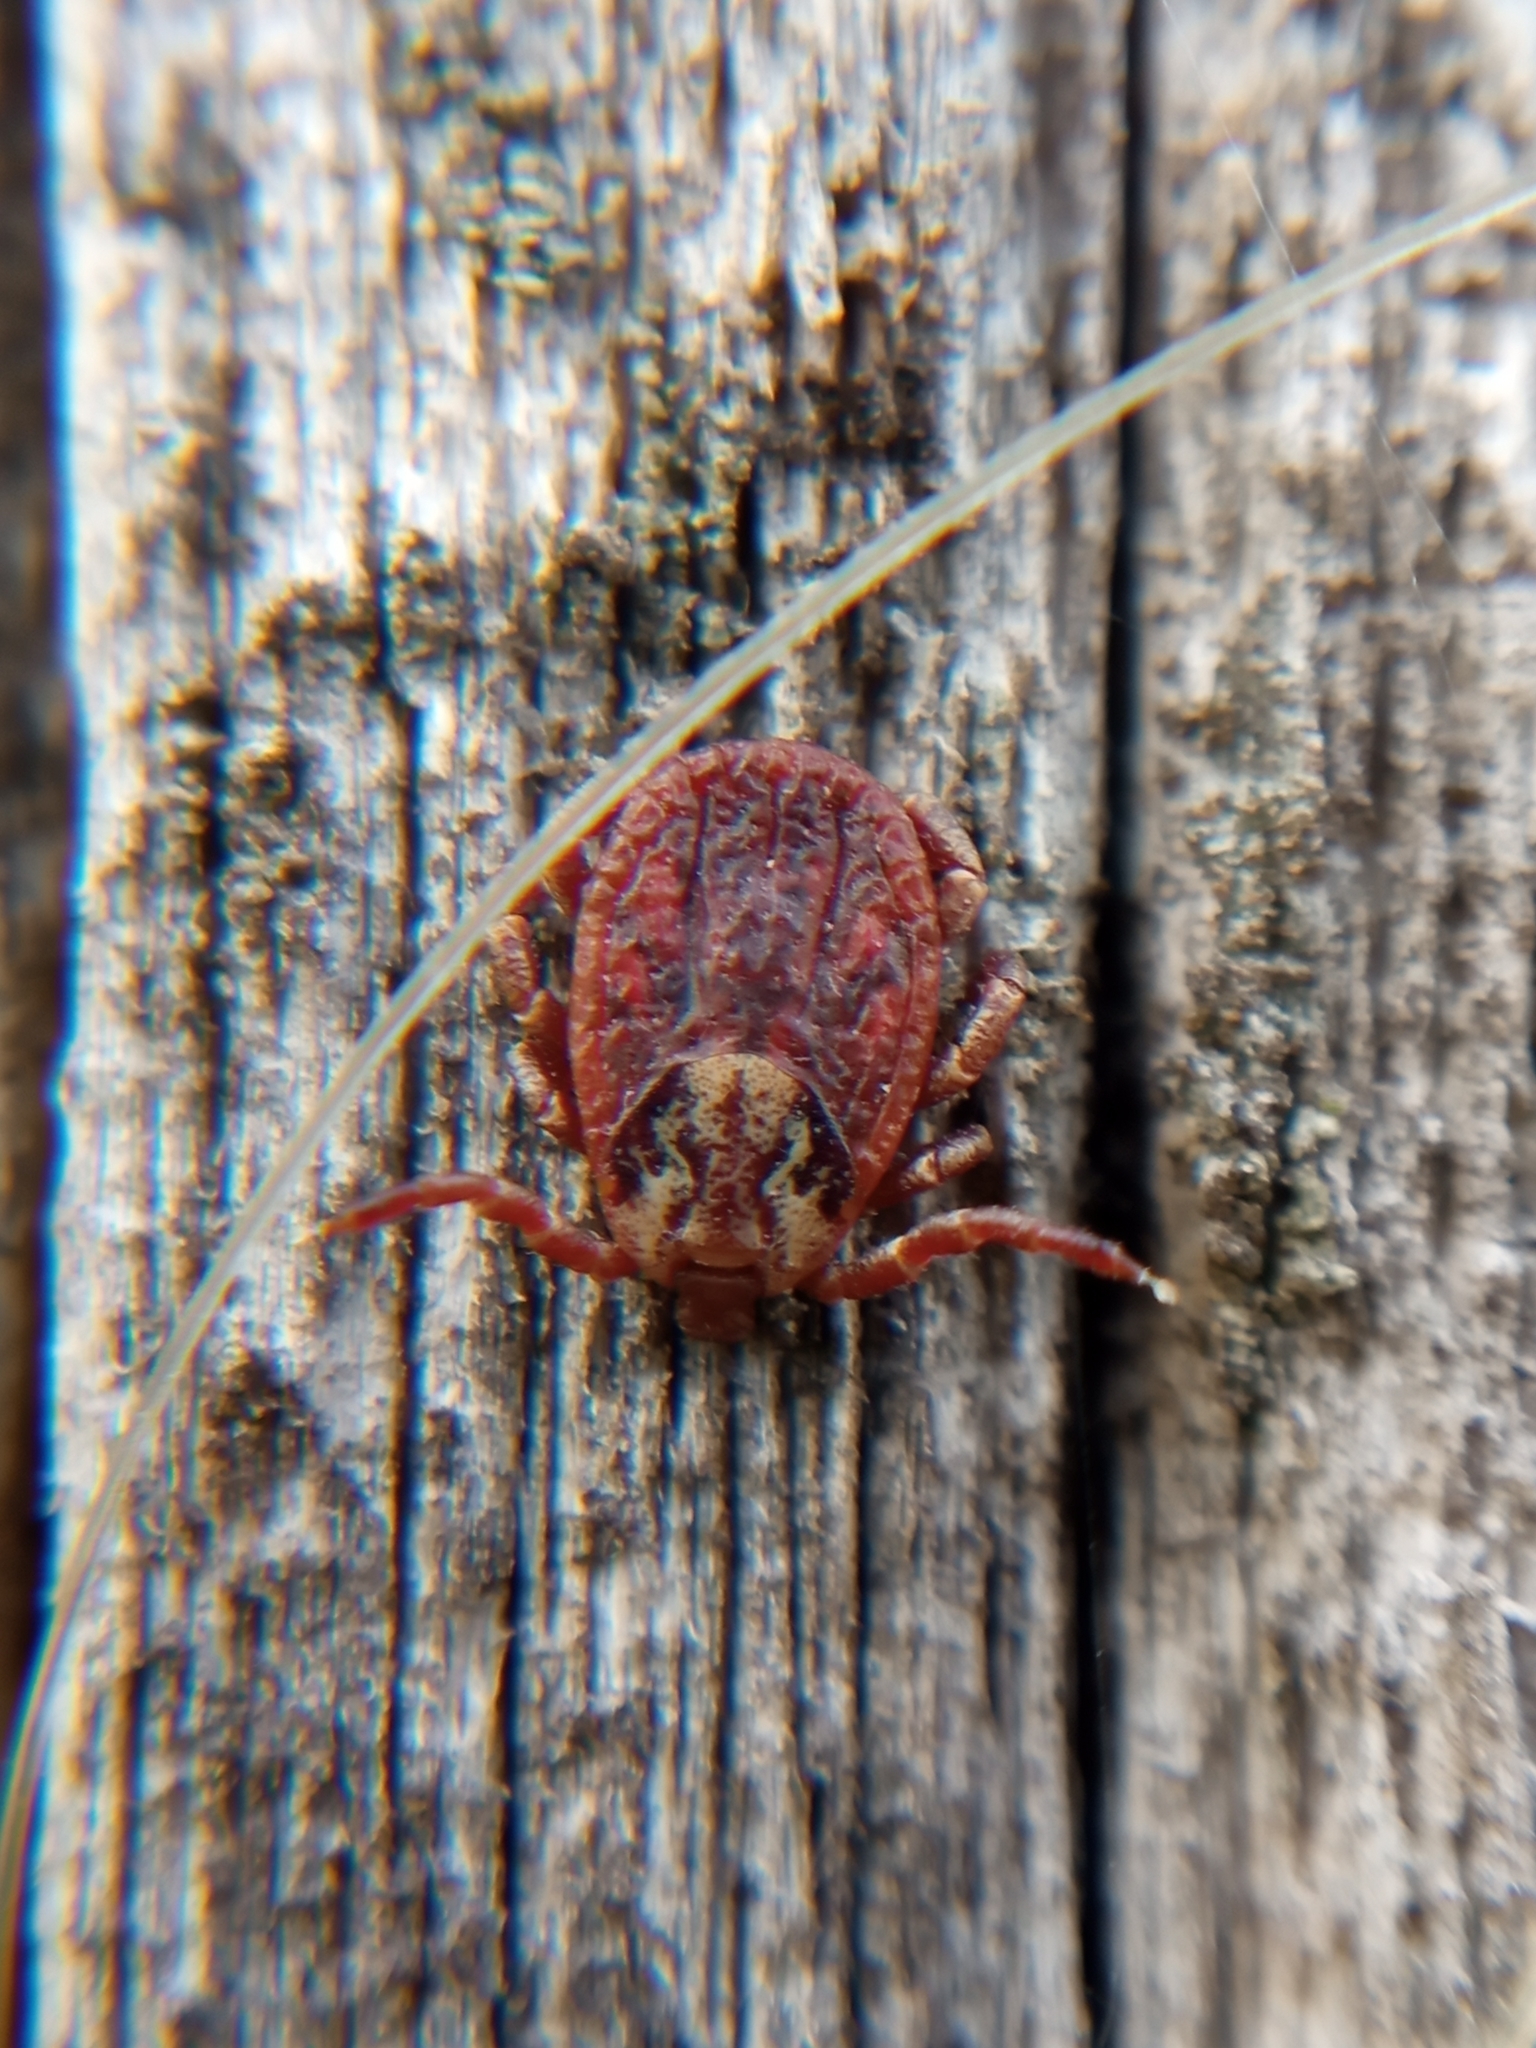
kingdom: Animalia
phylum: Arthropoda
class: Arachnida
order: Ixodida
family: Ixodidae
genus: Dermacentor
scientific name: Dermacentor marginatus
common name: Ornate sheep tick
